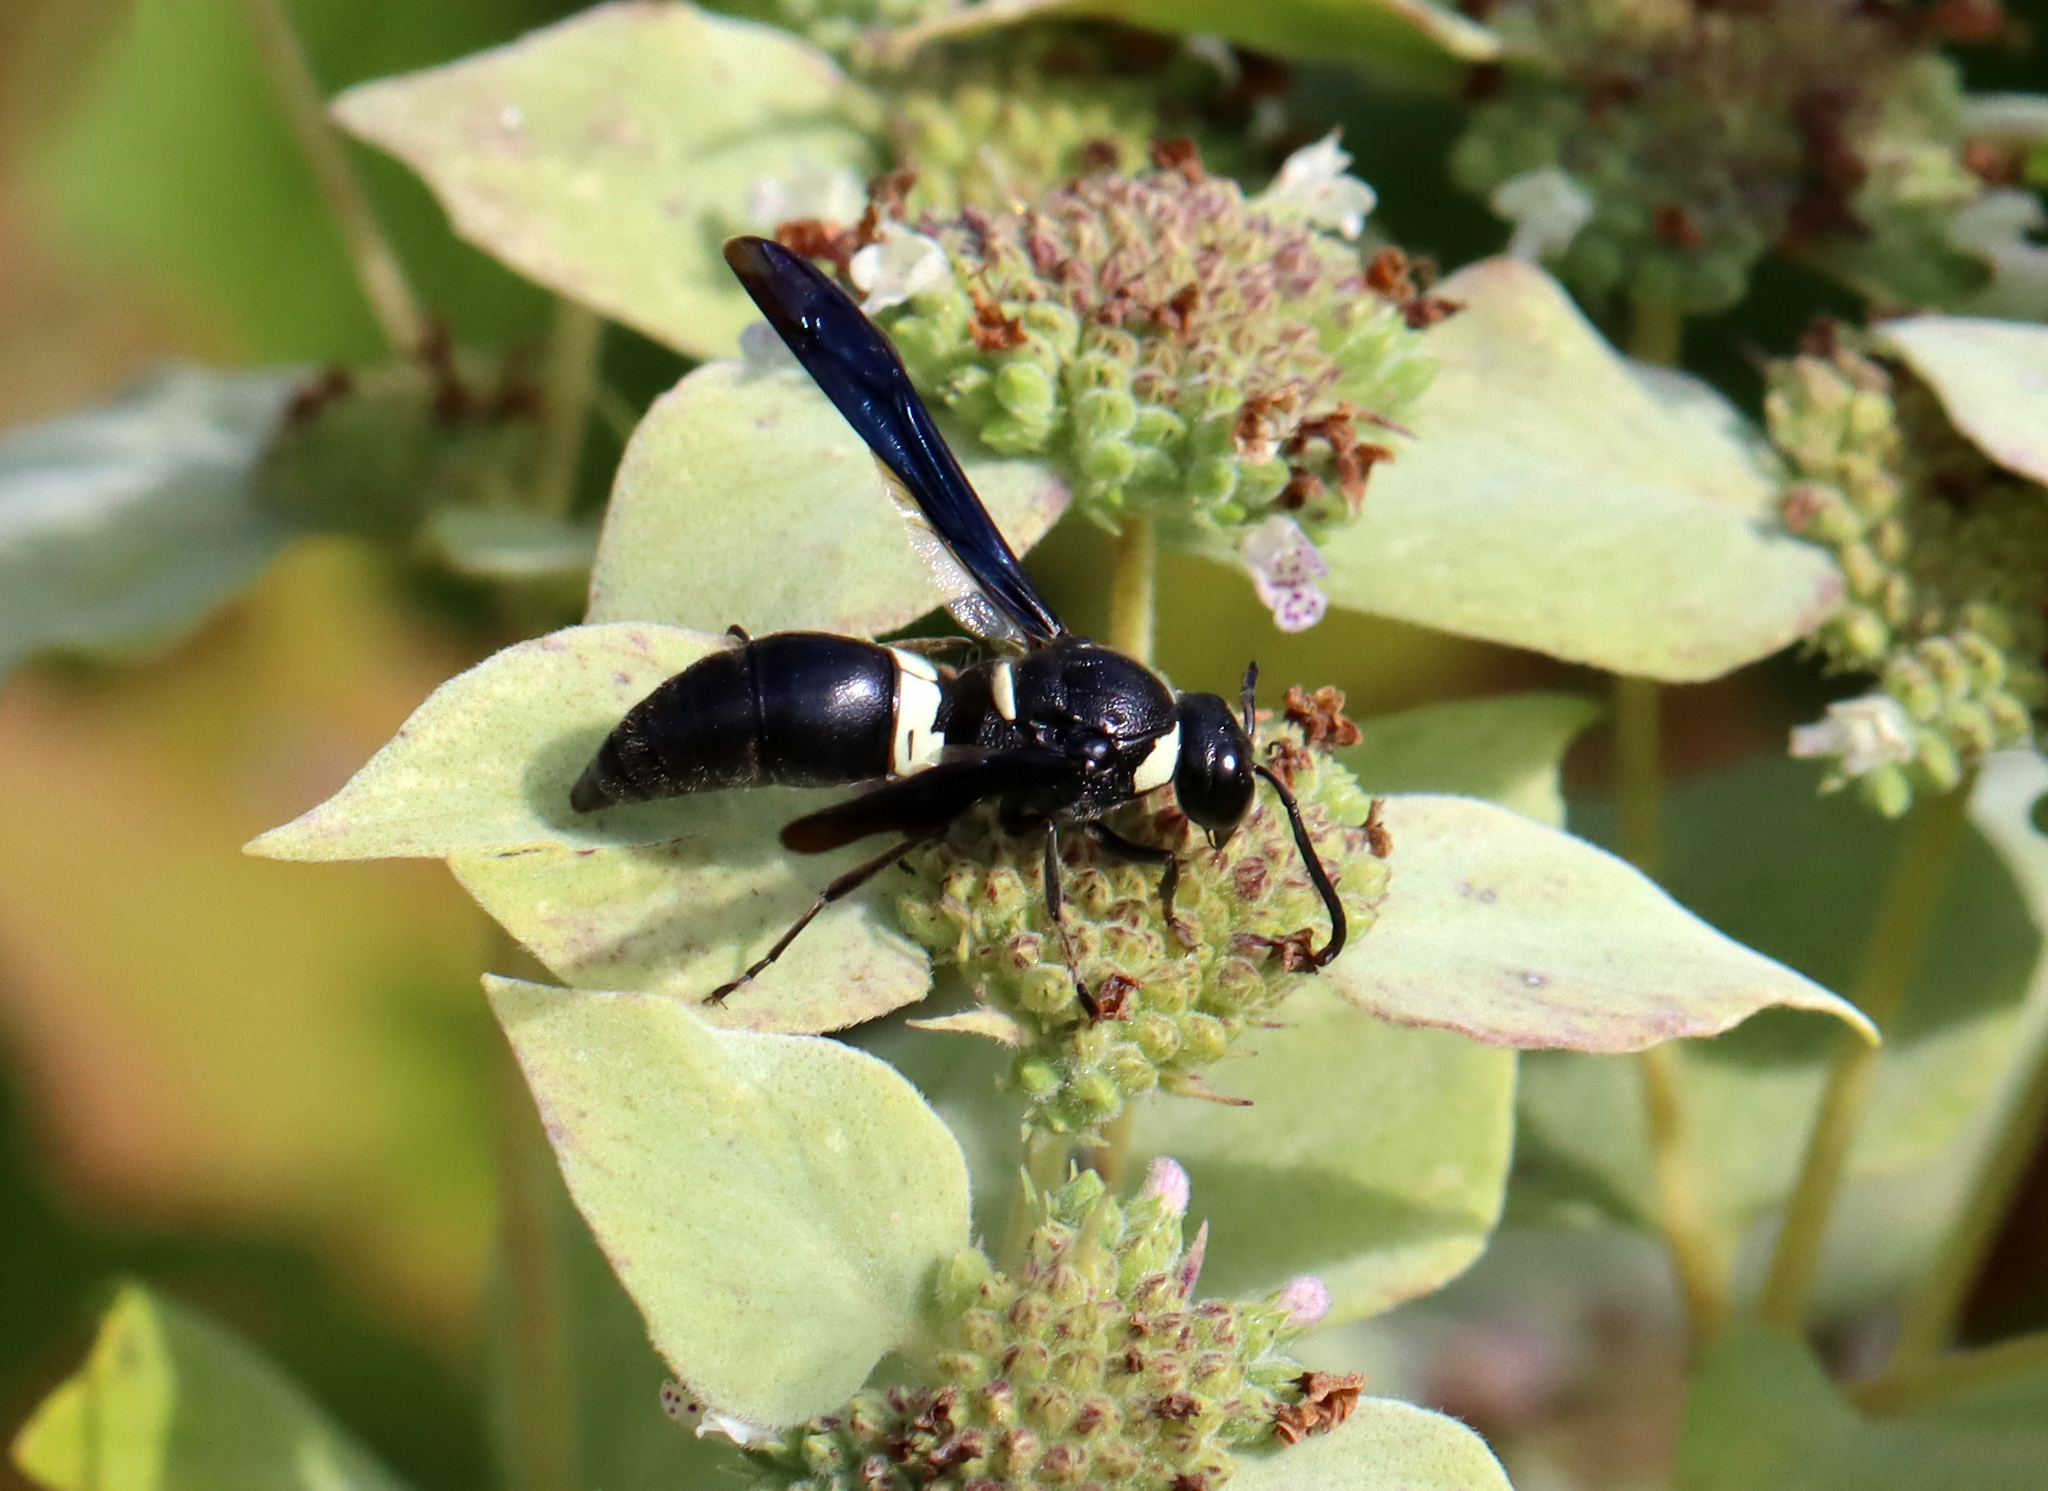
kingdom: Animalia
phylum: Arthropoda
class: Insecta
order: Hymenoptera
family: Eumenidae
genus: Monobia
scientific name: Monobia quadridens
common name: Four-toothed mason wasp
